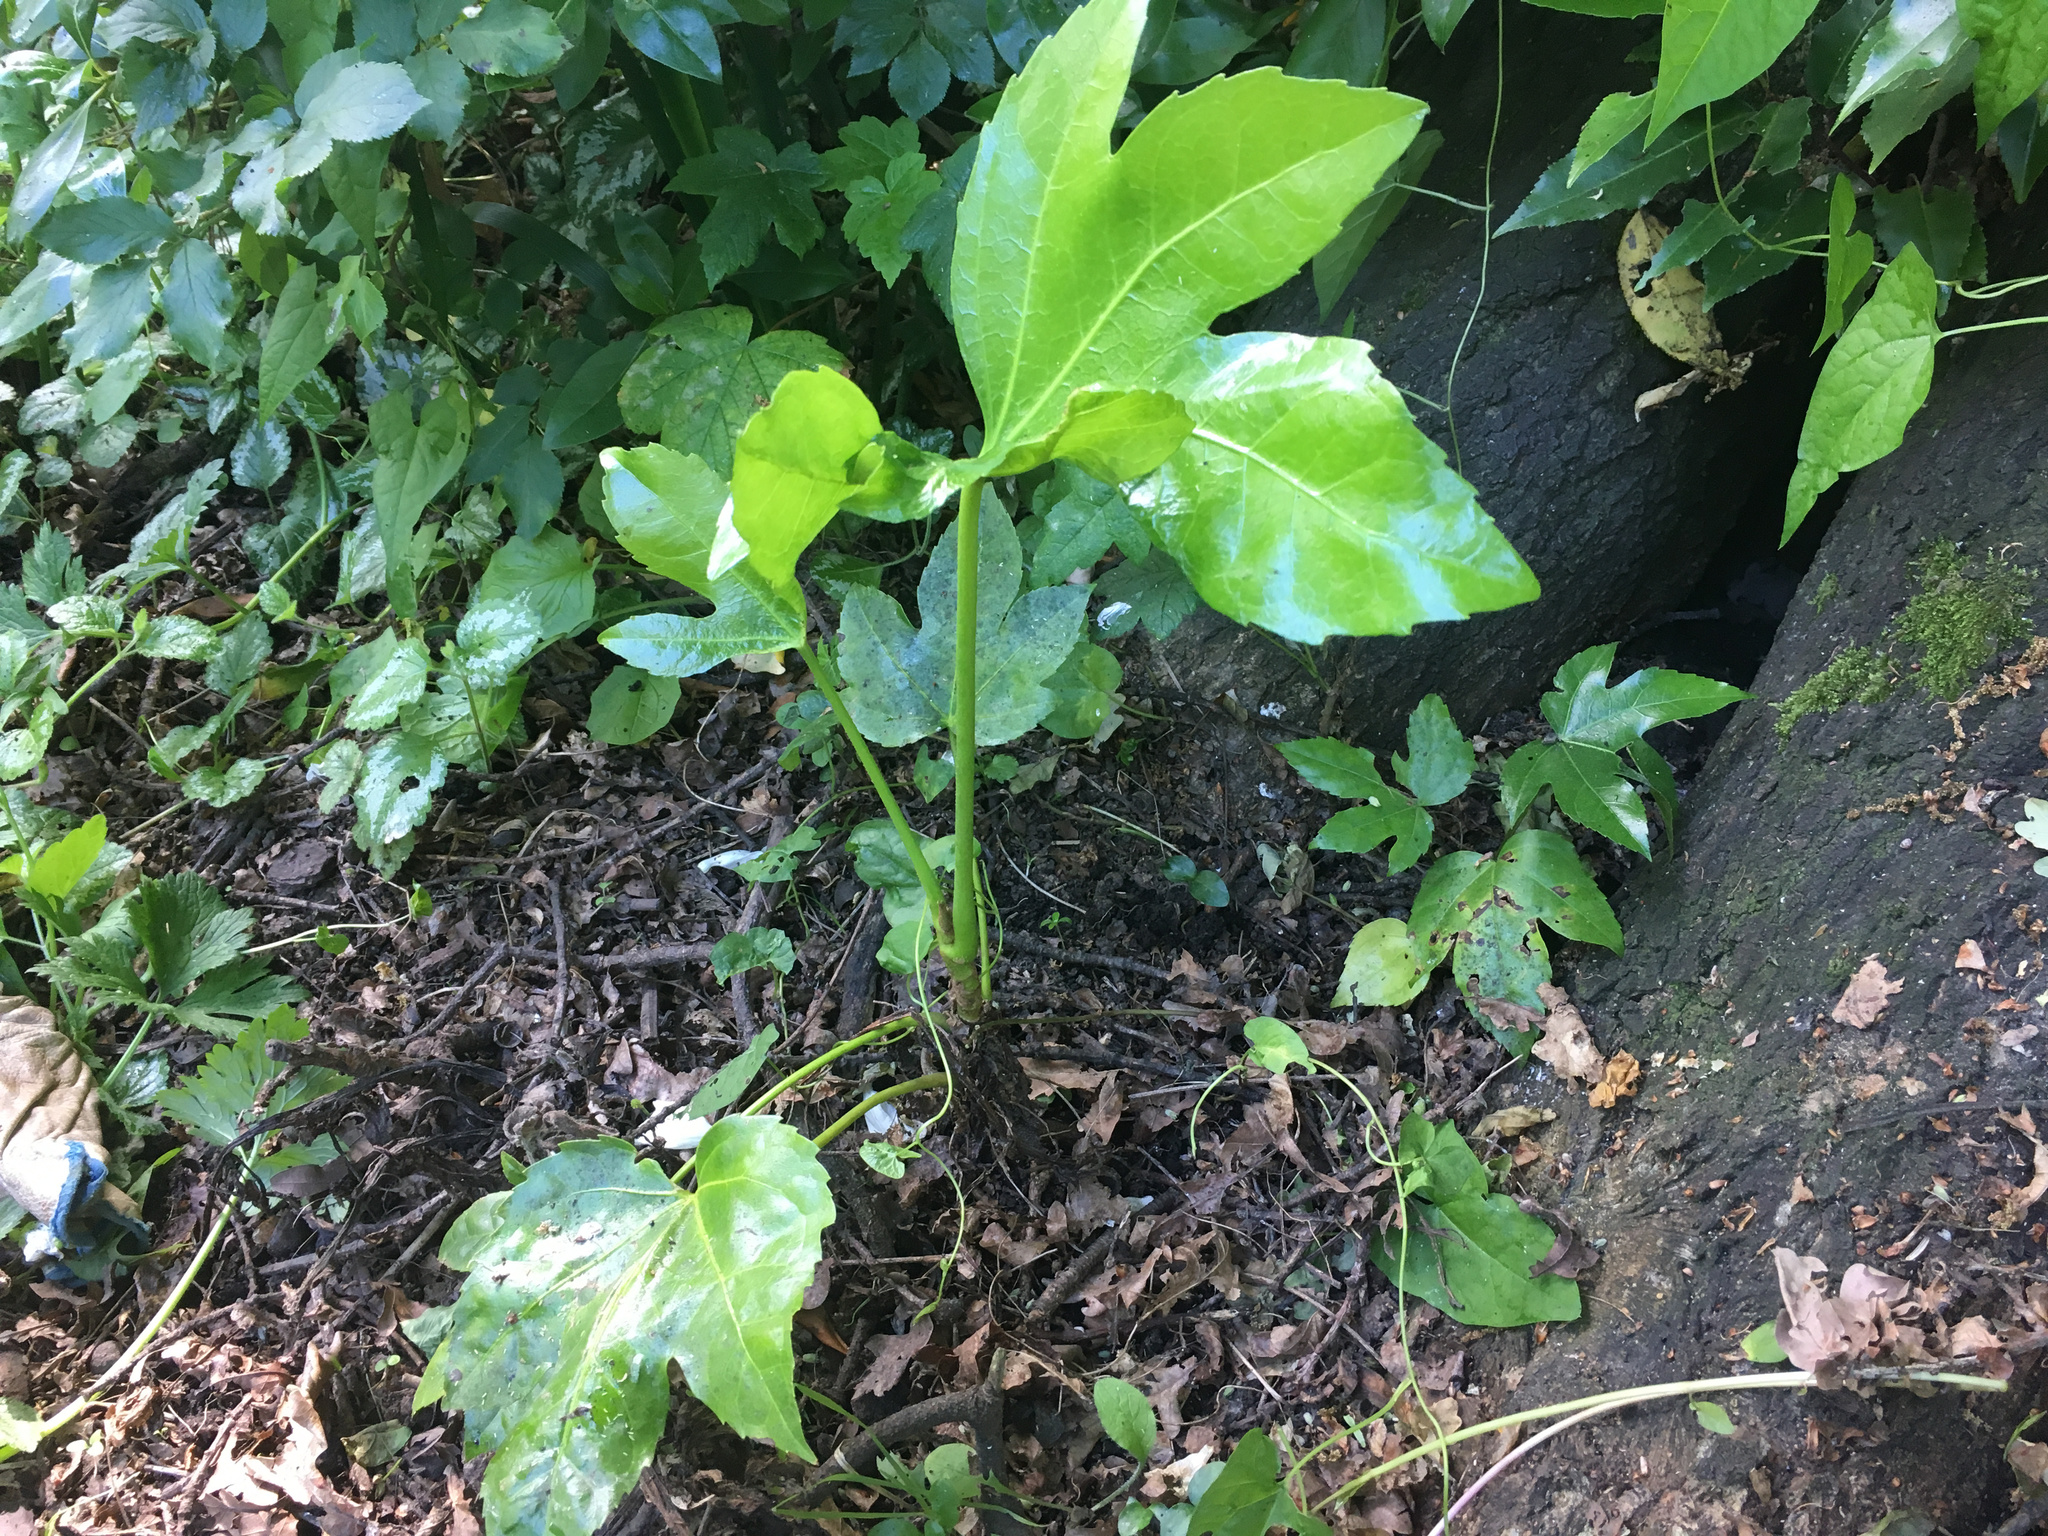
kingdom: Plantae
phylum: Tracheophyta
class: Magnoliopsida
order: Apiales
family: Araliaceae
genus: Fatsia
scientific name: Fatsia japonica
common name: Fatsia
